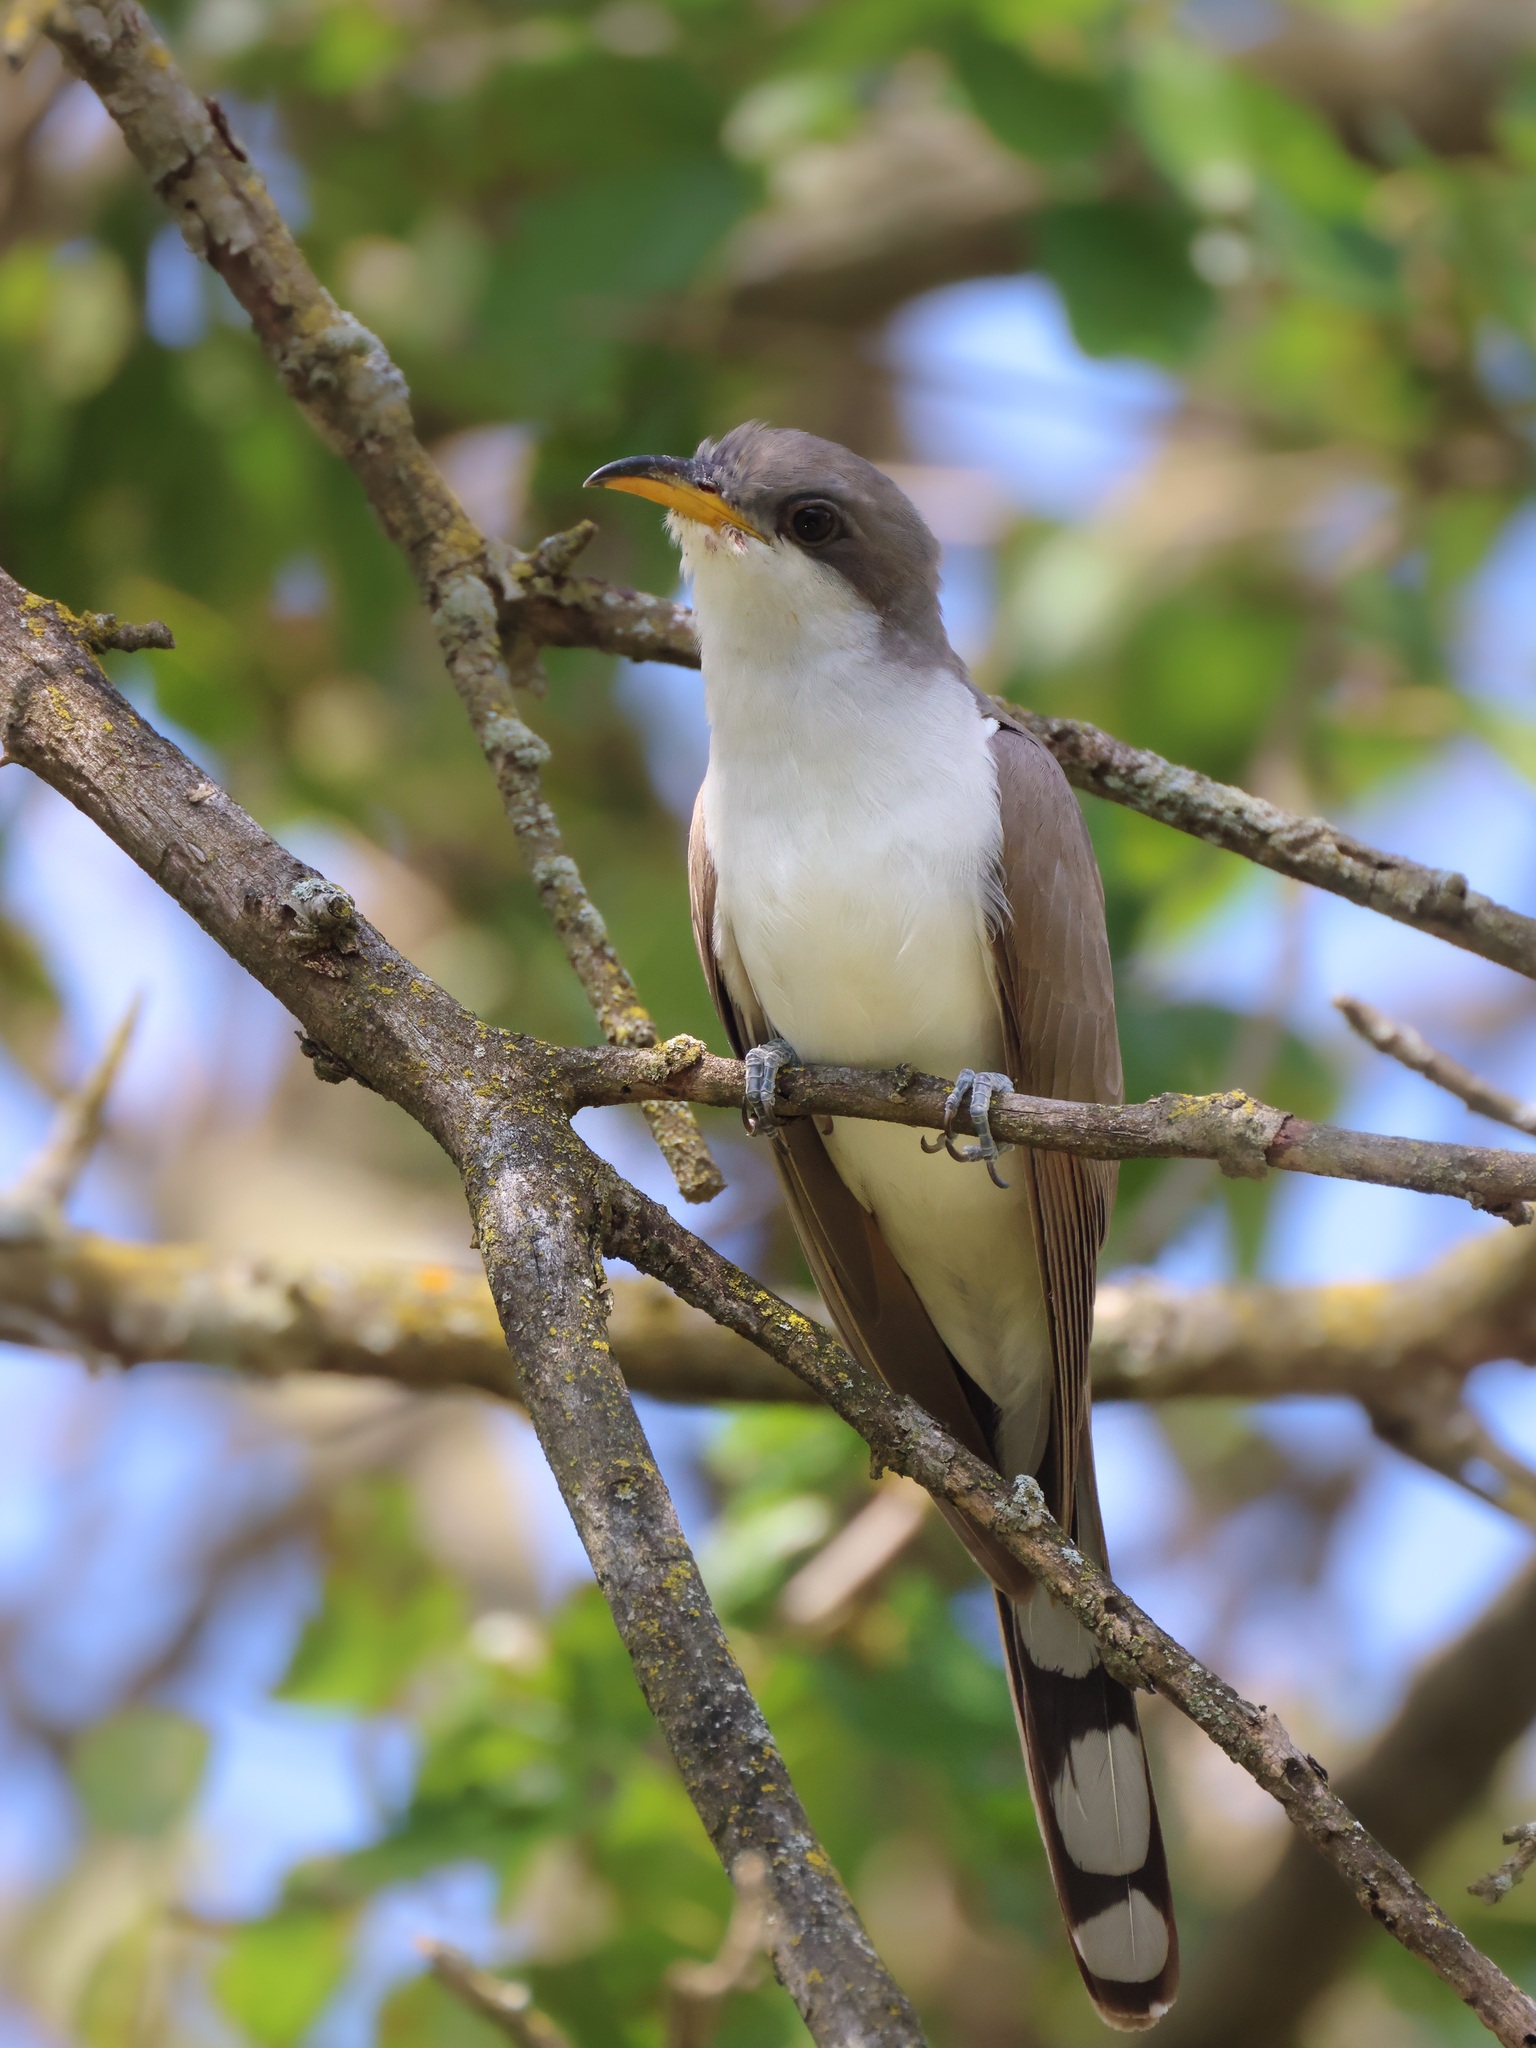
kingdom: Animalia
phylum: Chordata
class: Aves
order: Cuculiformes
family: Cuculidae
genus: Coccyzus
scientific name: Coccyzus americanus
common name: Yellow-billed cuckoo
